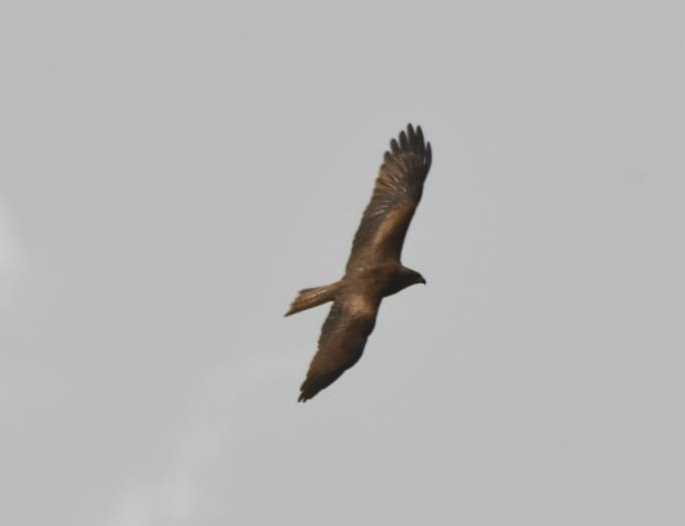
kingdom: Animalia
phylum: Chordata
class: Aves
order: Accipitriformes
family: Accipitridae
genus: Milvus
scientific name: Milvus migrans
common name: Black kite
